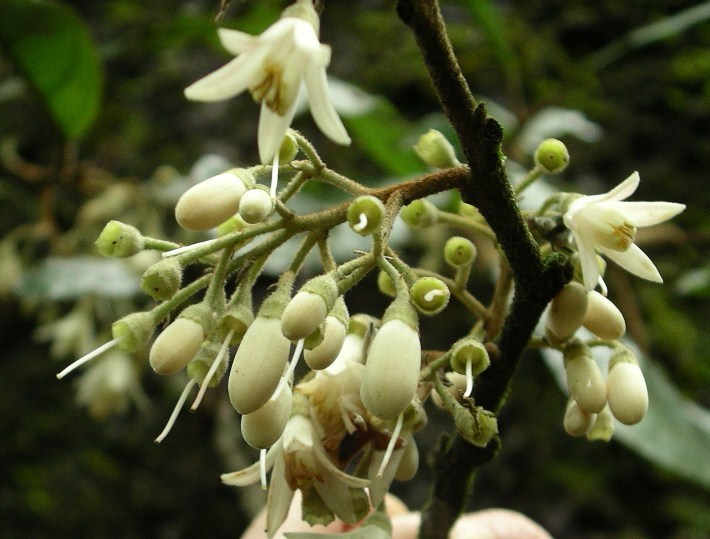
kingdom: Plantae
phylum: Tracheophyta
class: Magnoliopsida
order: Ericales
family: Styracaceae
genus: Styrax
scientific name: Styrax magnus
